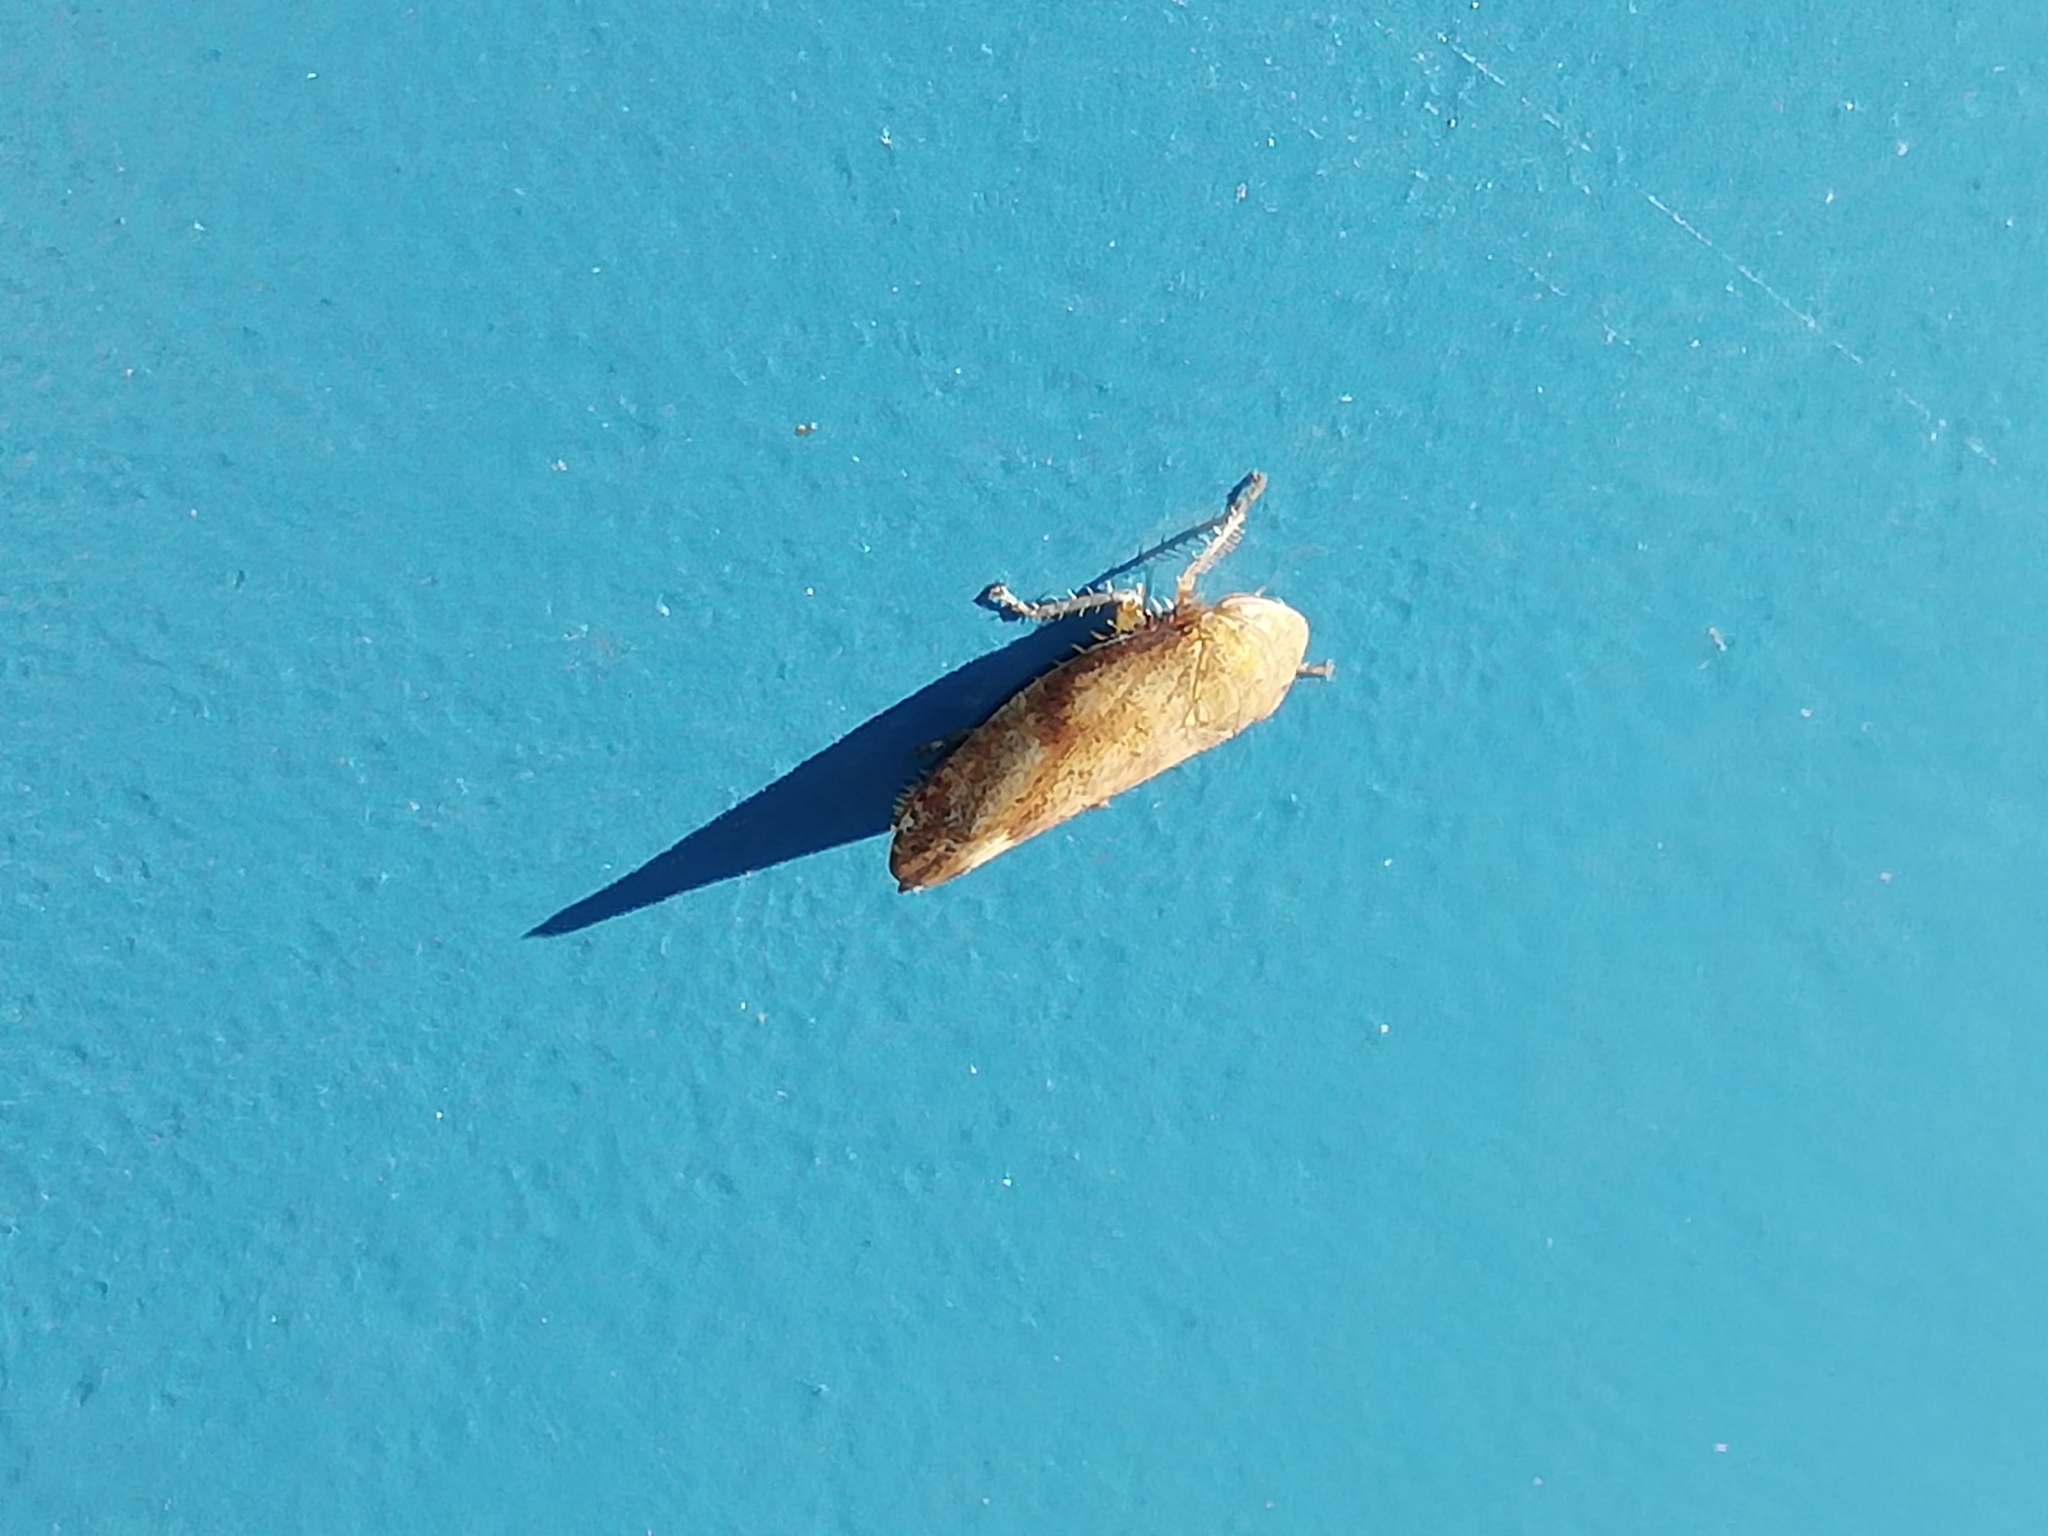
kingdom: Animalia
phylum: Arthropoda
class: Insecta
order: Hemiptera
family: Cicadellidae
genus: Fieberiella
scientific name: Fieberiella florii
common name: Flor’s leafhopper
